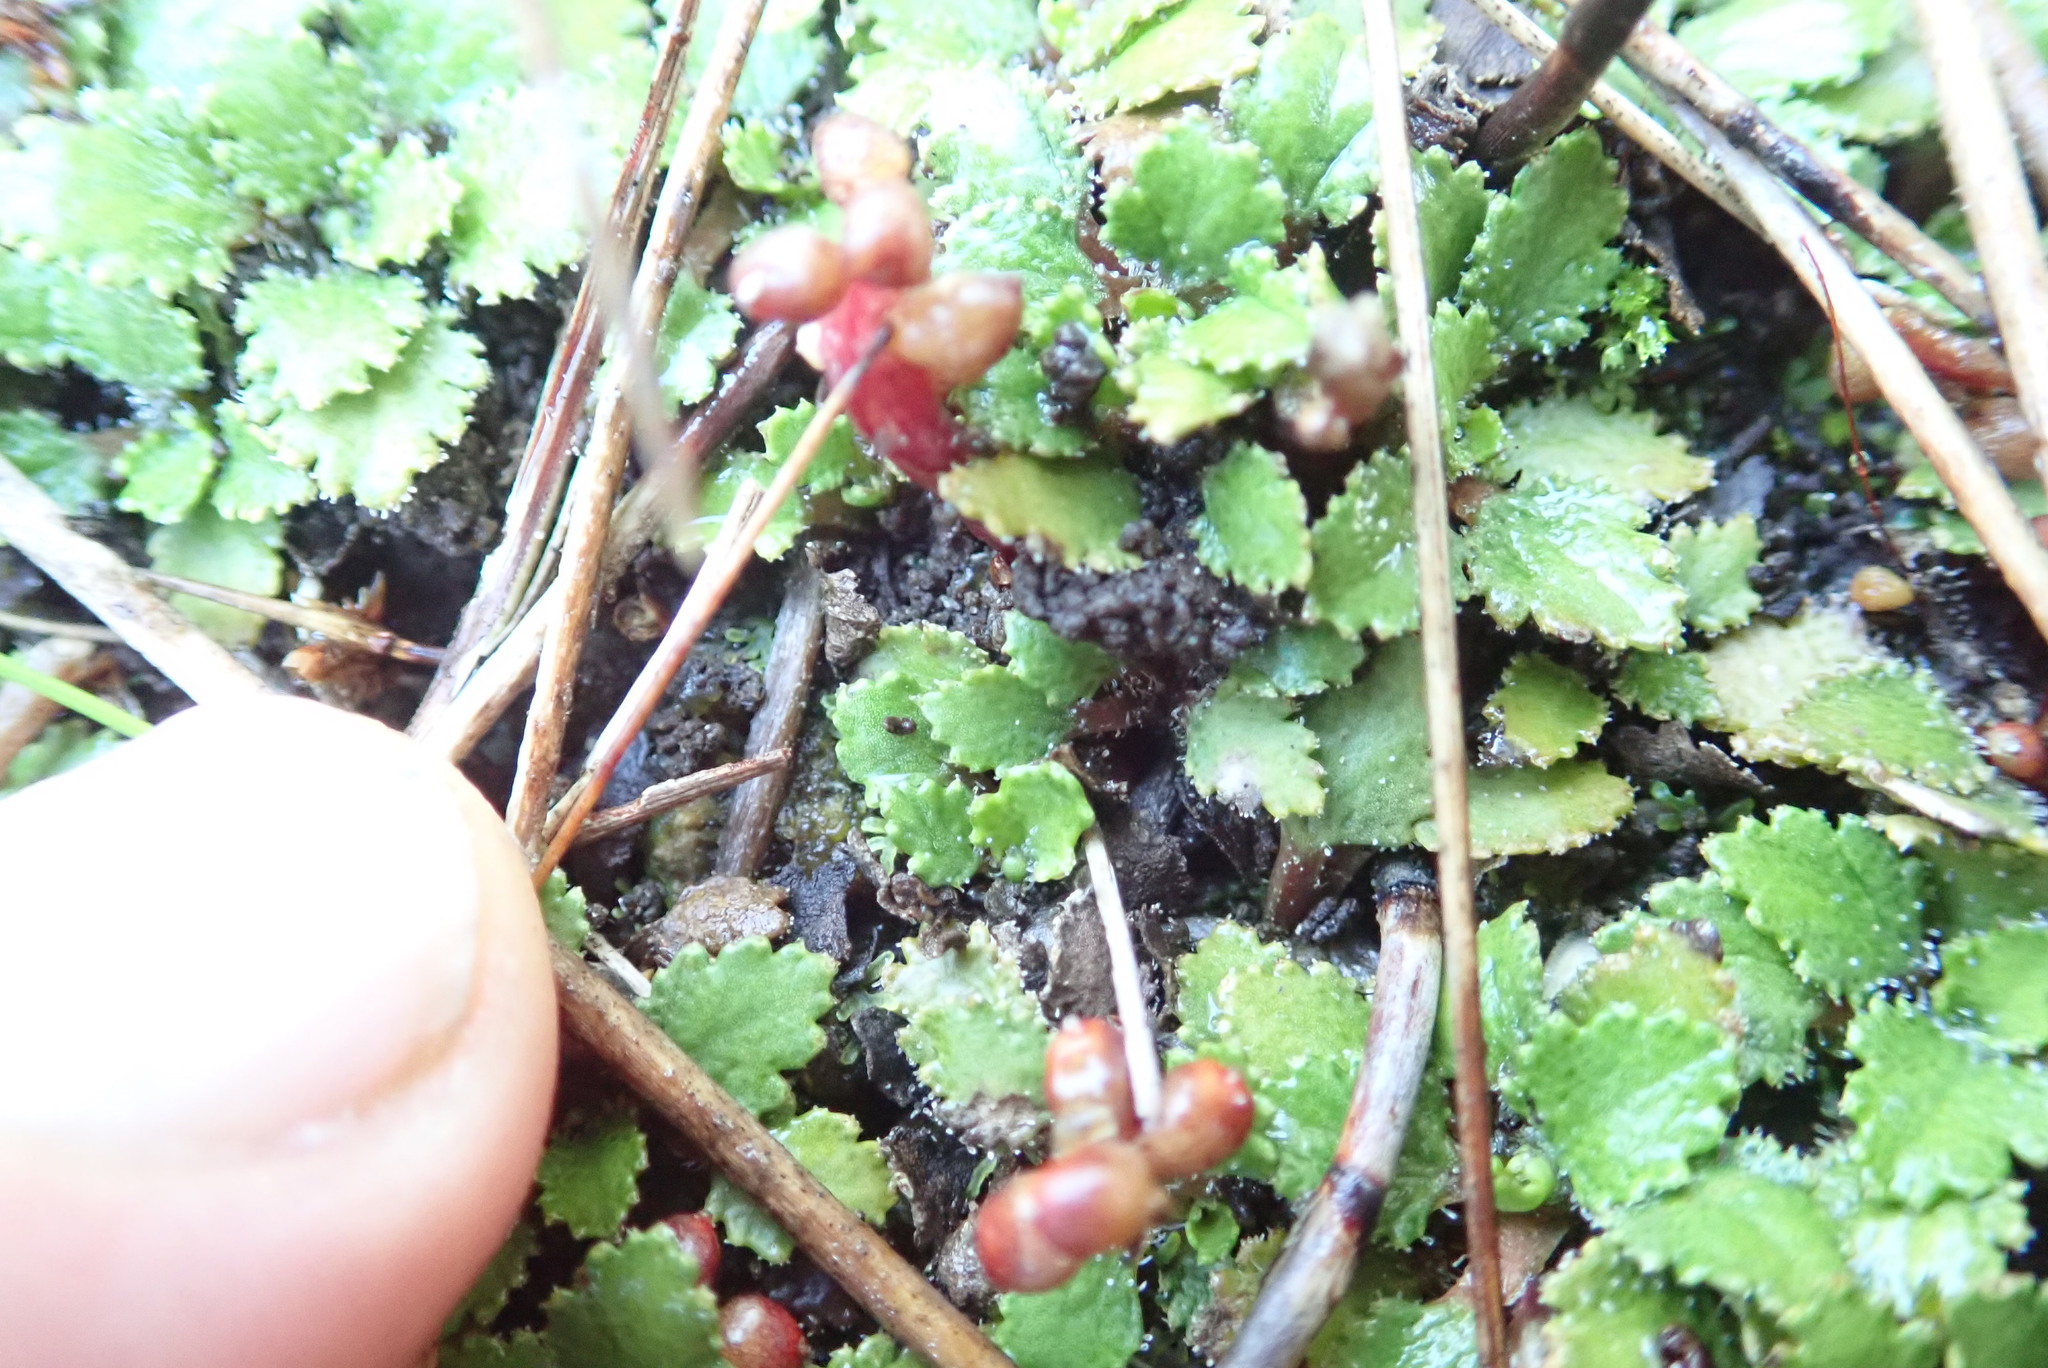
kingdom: Plantae
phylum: Tracheophyta
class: Magnoliopsida
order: Gunnerales
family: Gunneraceae
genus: Gunnera
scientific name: Gunnera dentata
